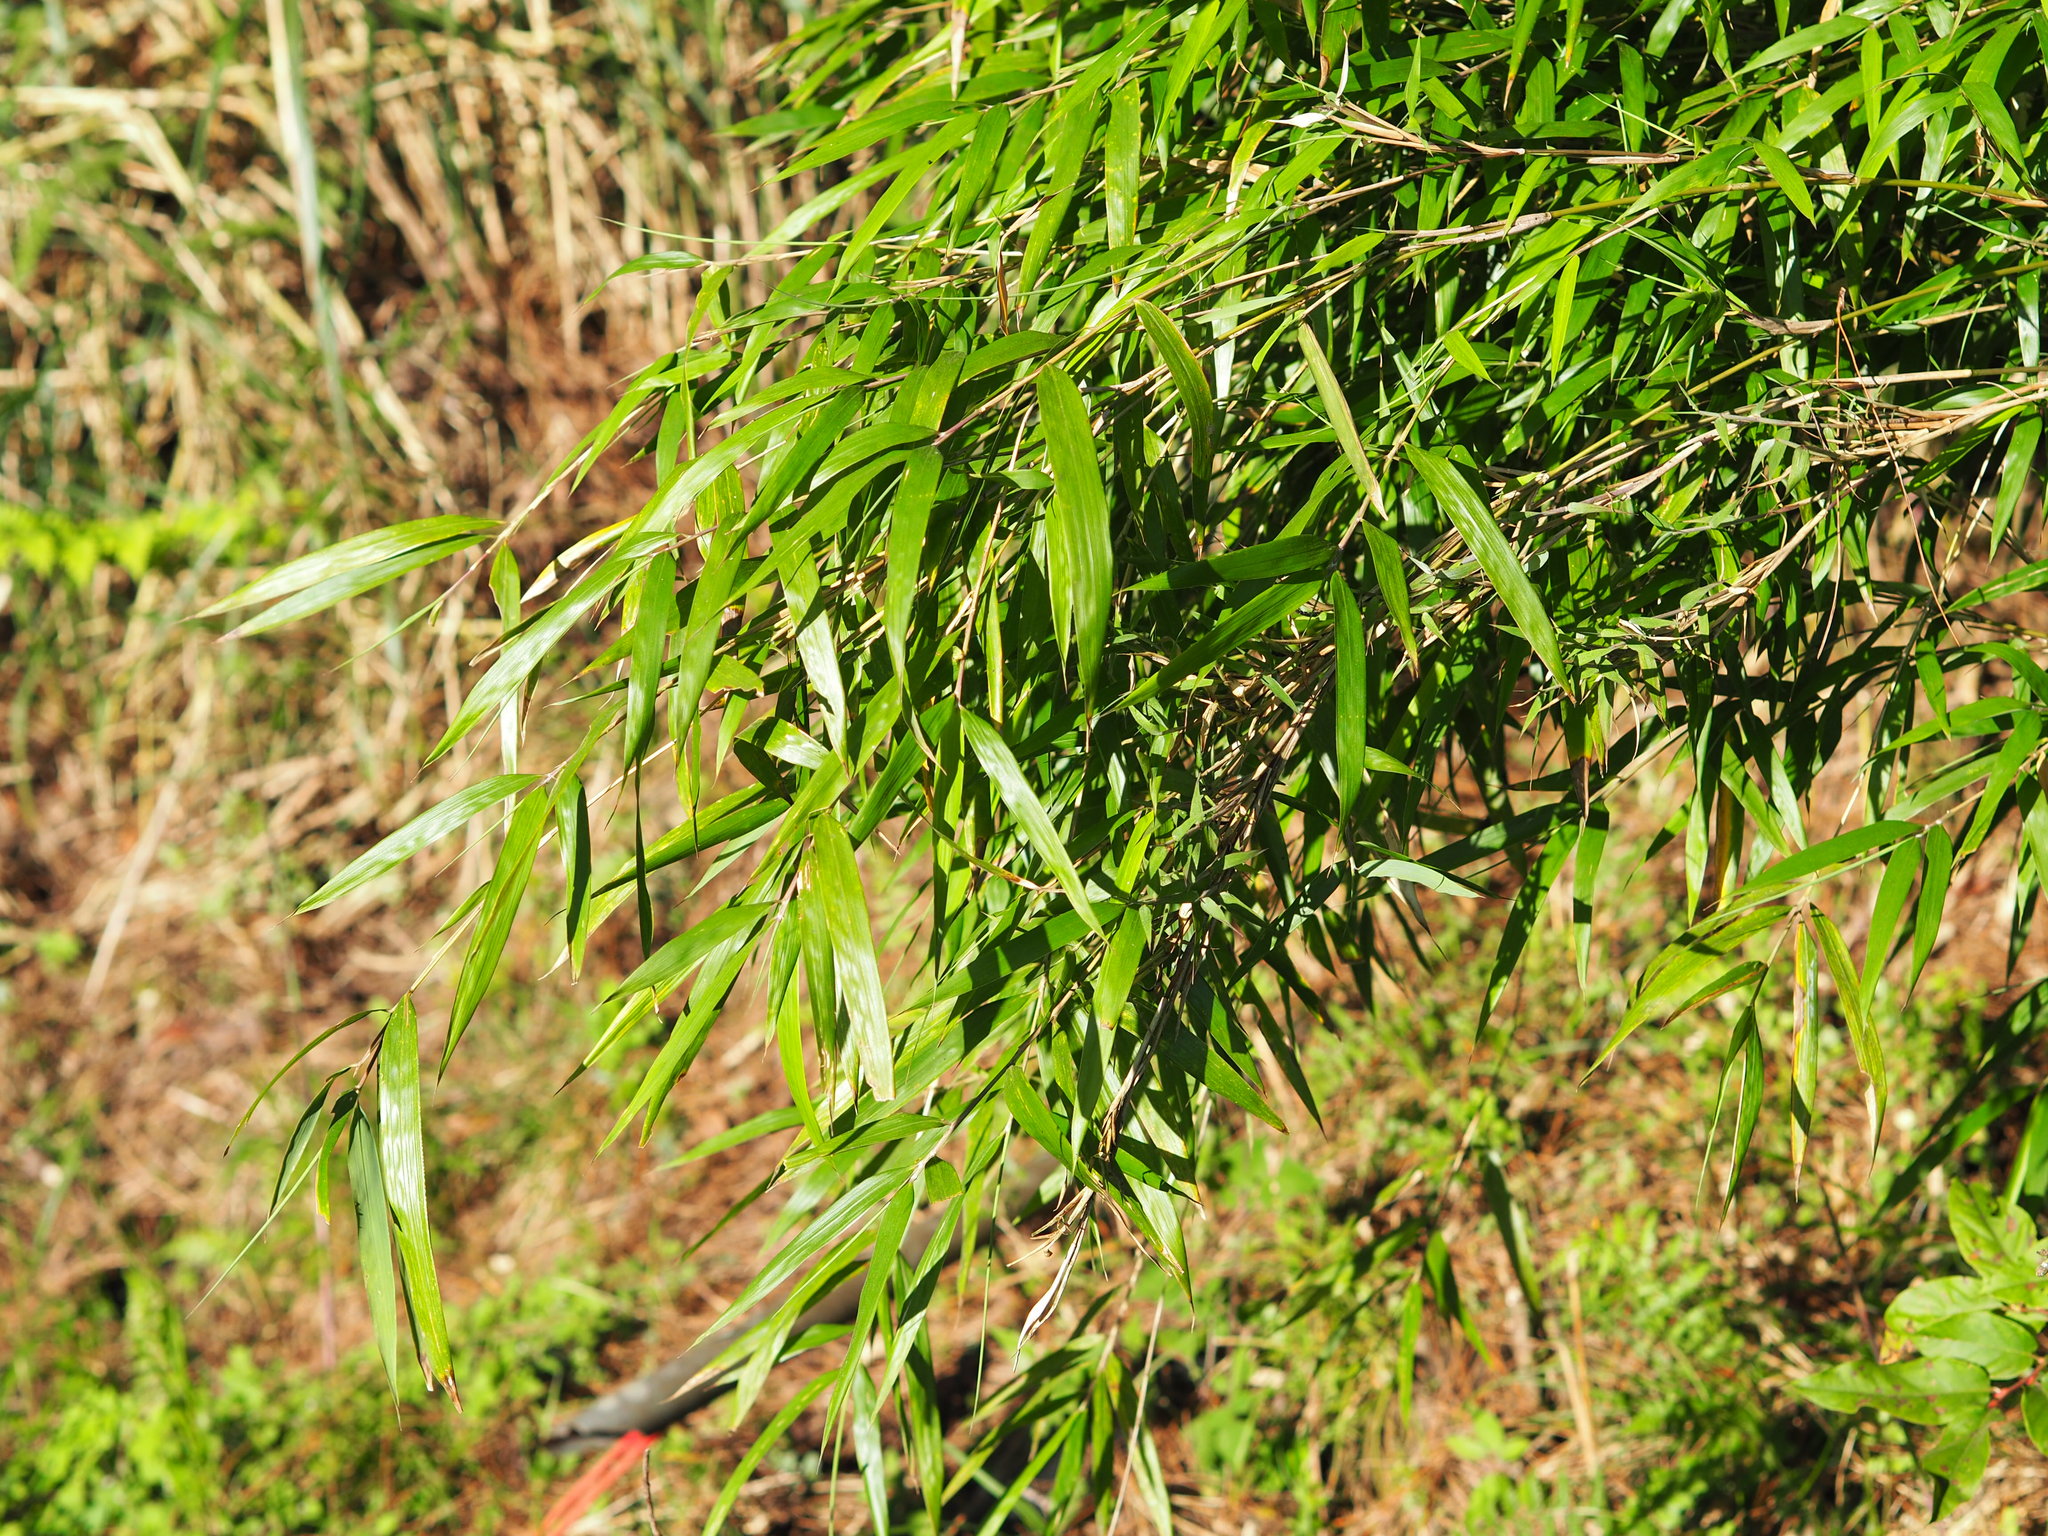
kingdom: Plantae
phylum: Tracheophyta
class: Liliopsida
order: Poales
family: Poaceae
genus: Yushania
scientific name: Yushania niitakayamensis
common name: Yushan cane
